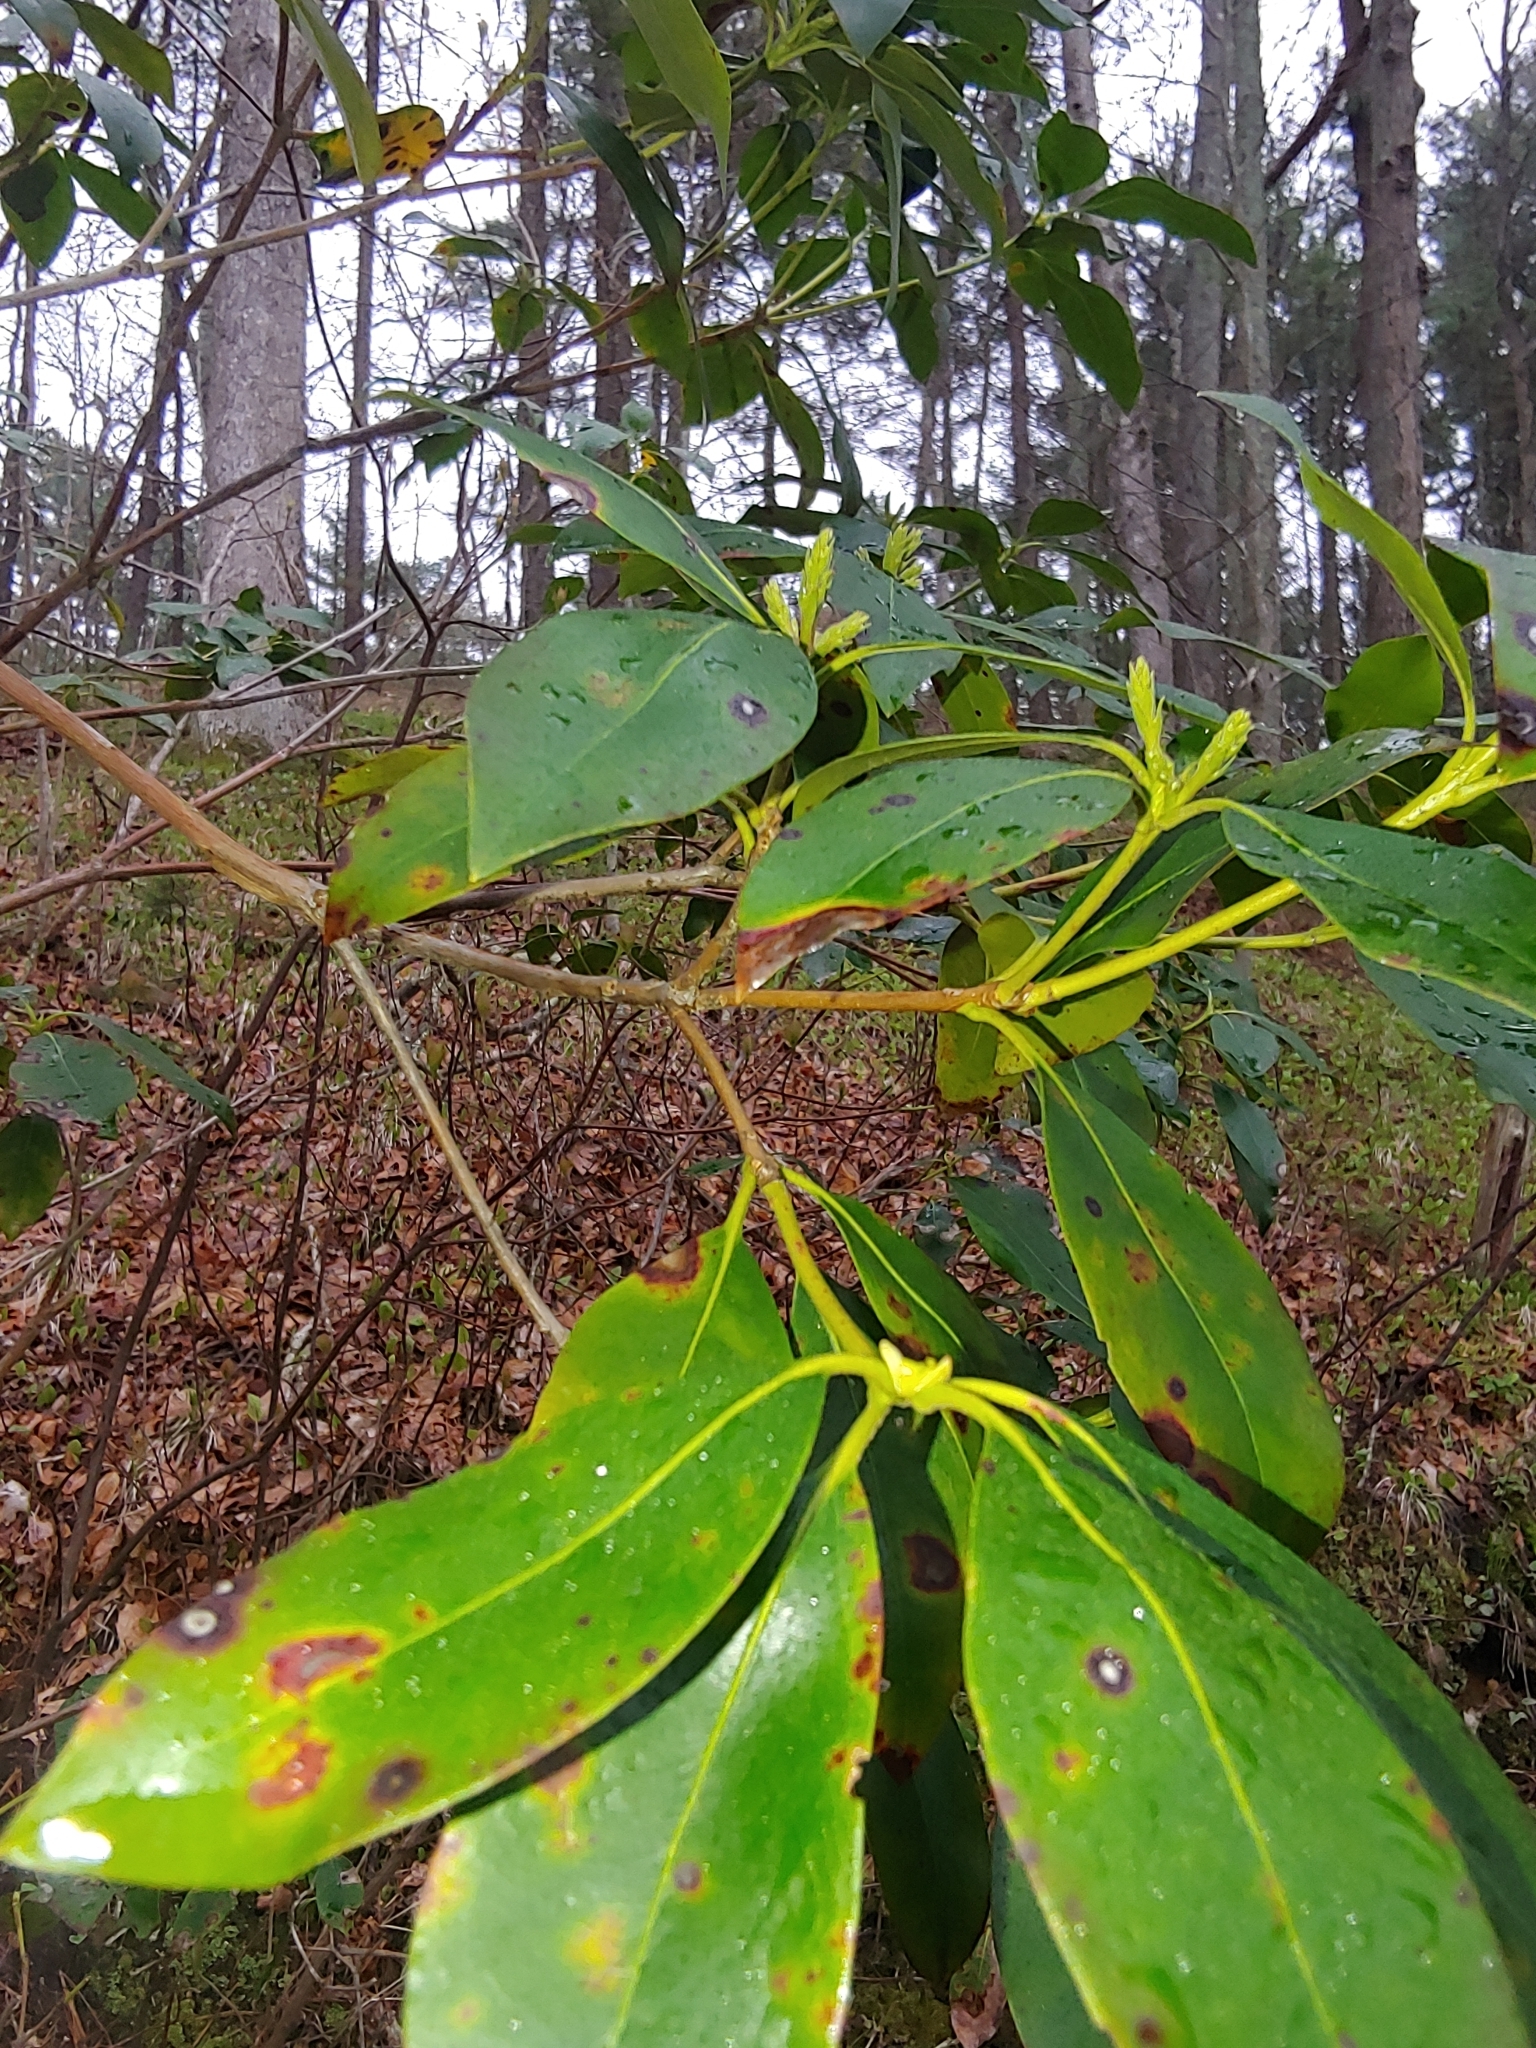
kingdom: Plantae
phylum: Tracheophyta
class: Magnoliopsida
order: Ericales
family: Ericaceae
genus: Kalmia
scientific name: Kalmia latifolia
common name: Mountain-laurel
